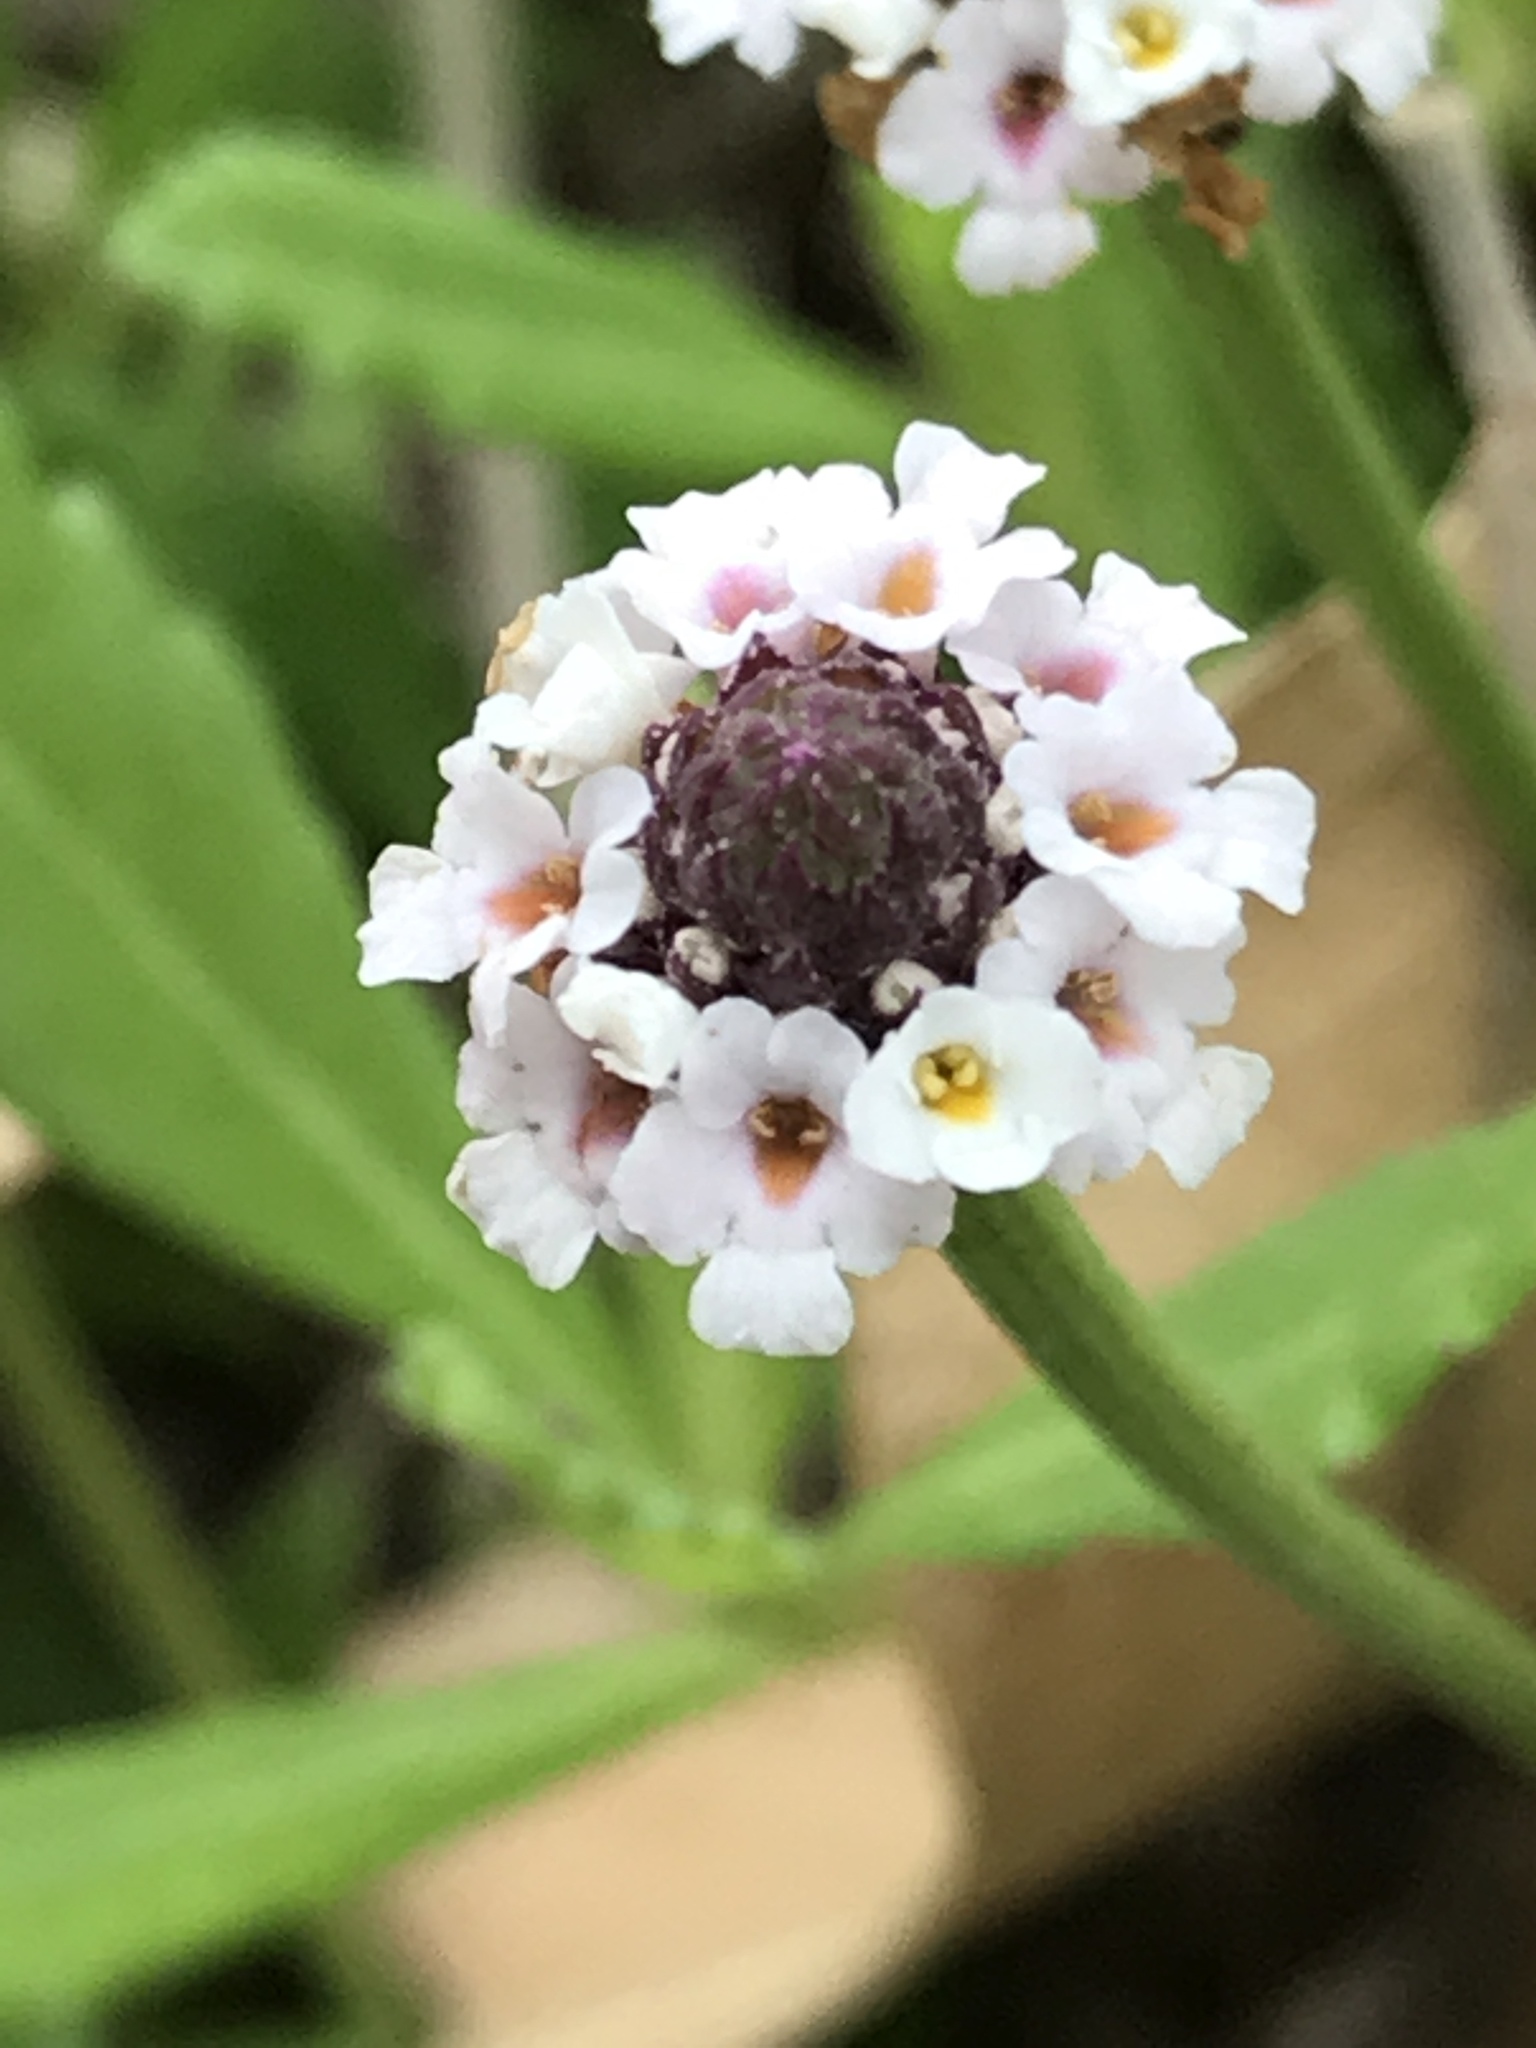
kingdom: Plantae
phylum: Tracheophyta
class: Magnoliopsida
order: Lamiales
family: Verbenaceae
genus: Phyla
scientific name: Phyla nodiflora
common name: Frogfruit
